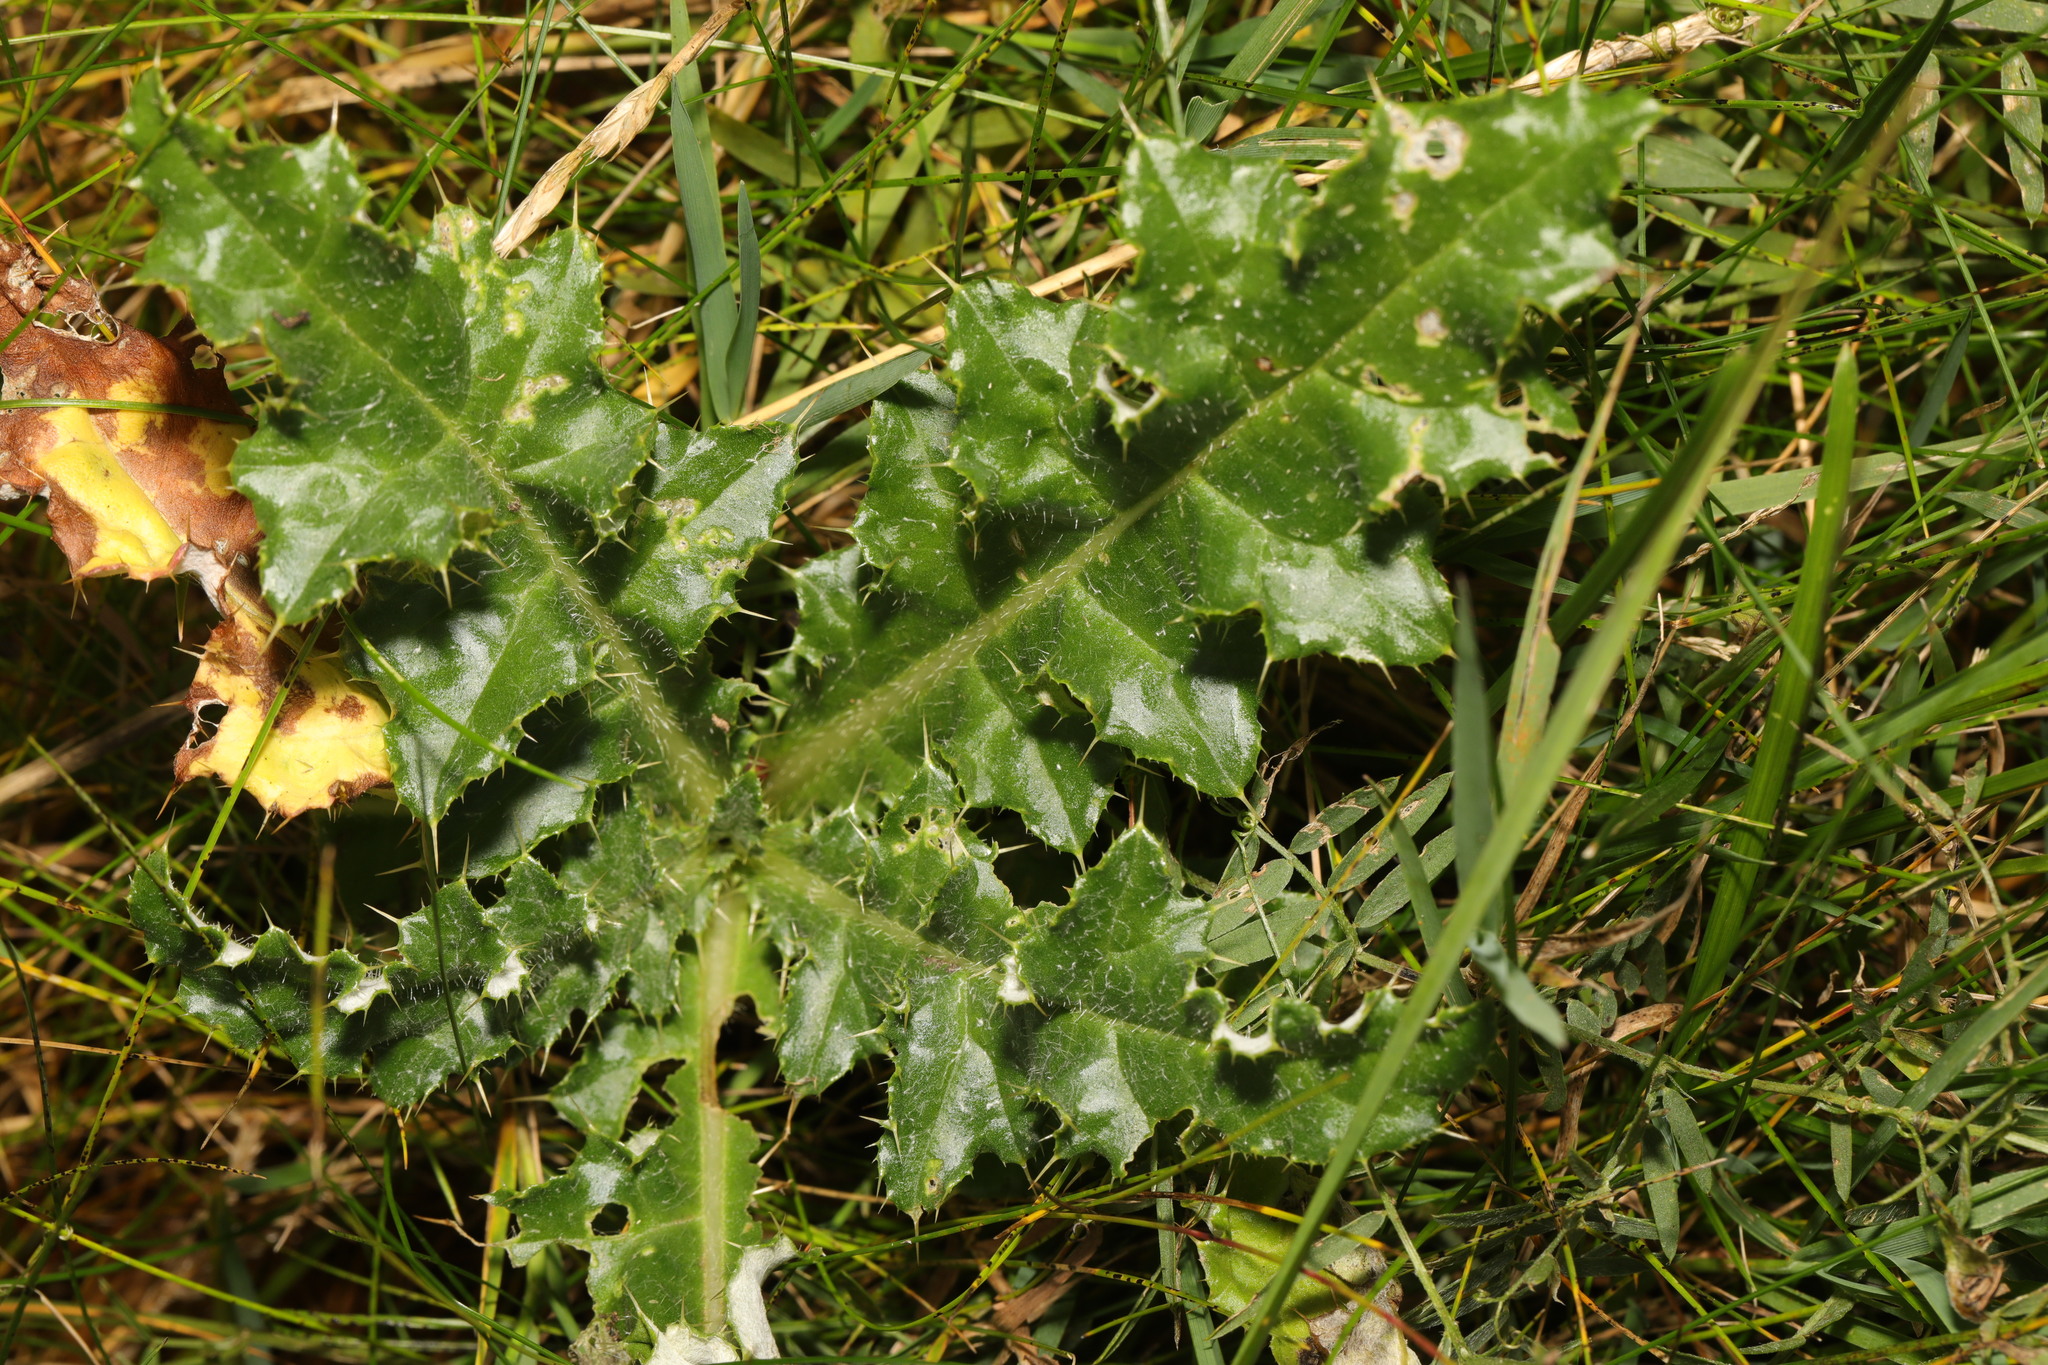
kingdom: Plantae
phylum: Tracheophyta
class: Magnoliopsida
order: Asterales
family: Asteraceae
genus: Cirsium
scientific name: Cirsium arvense
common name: Creeping thistle
